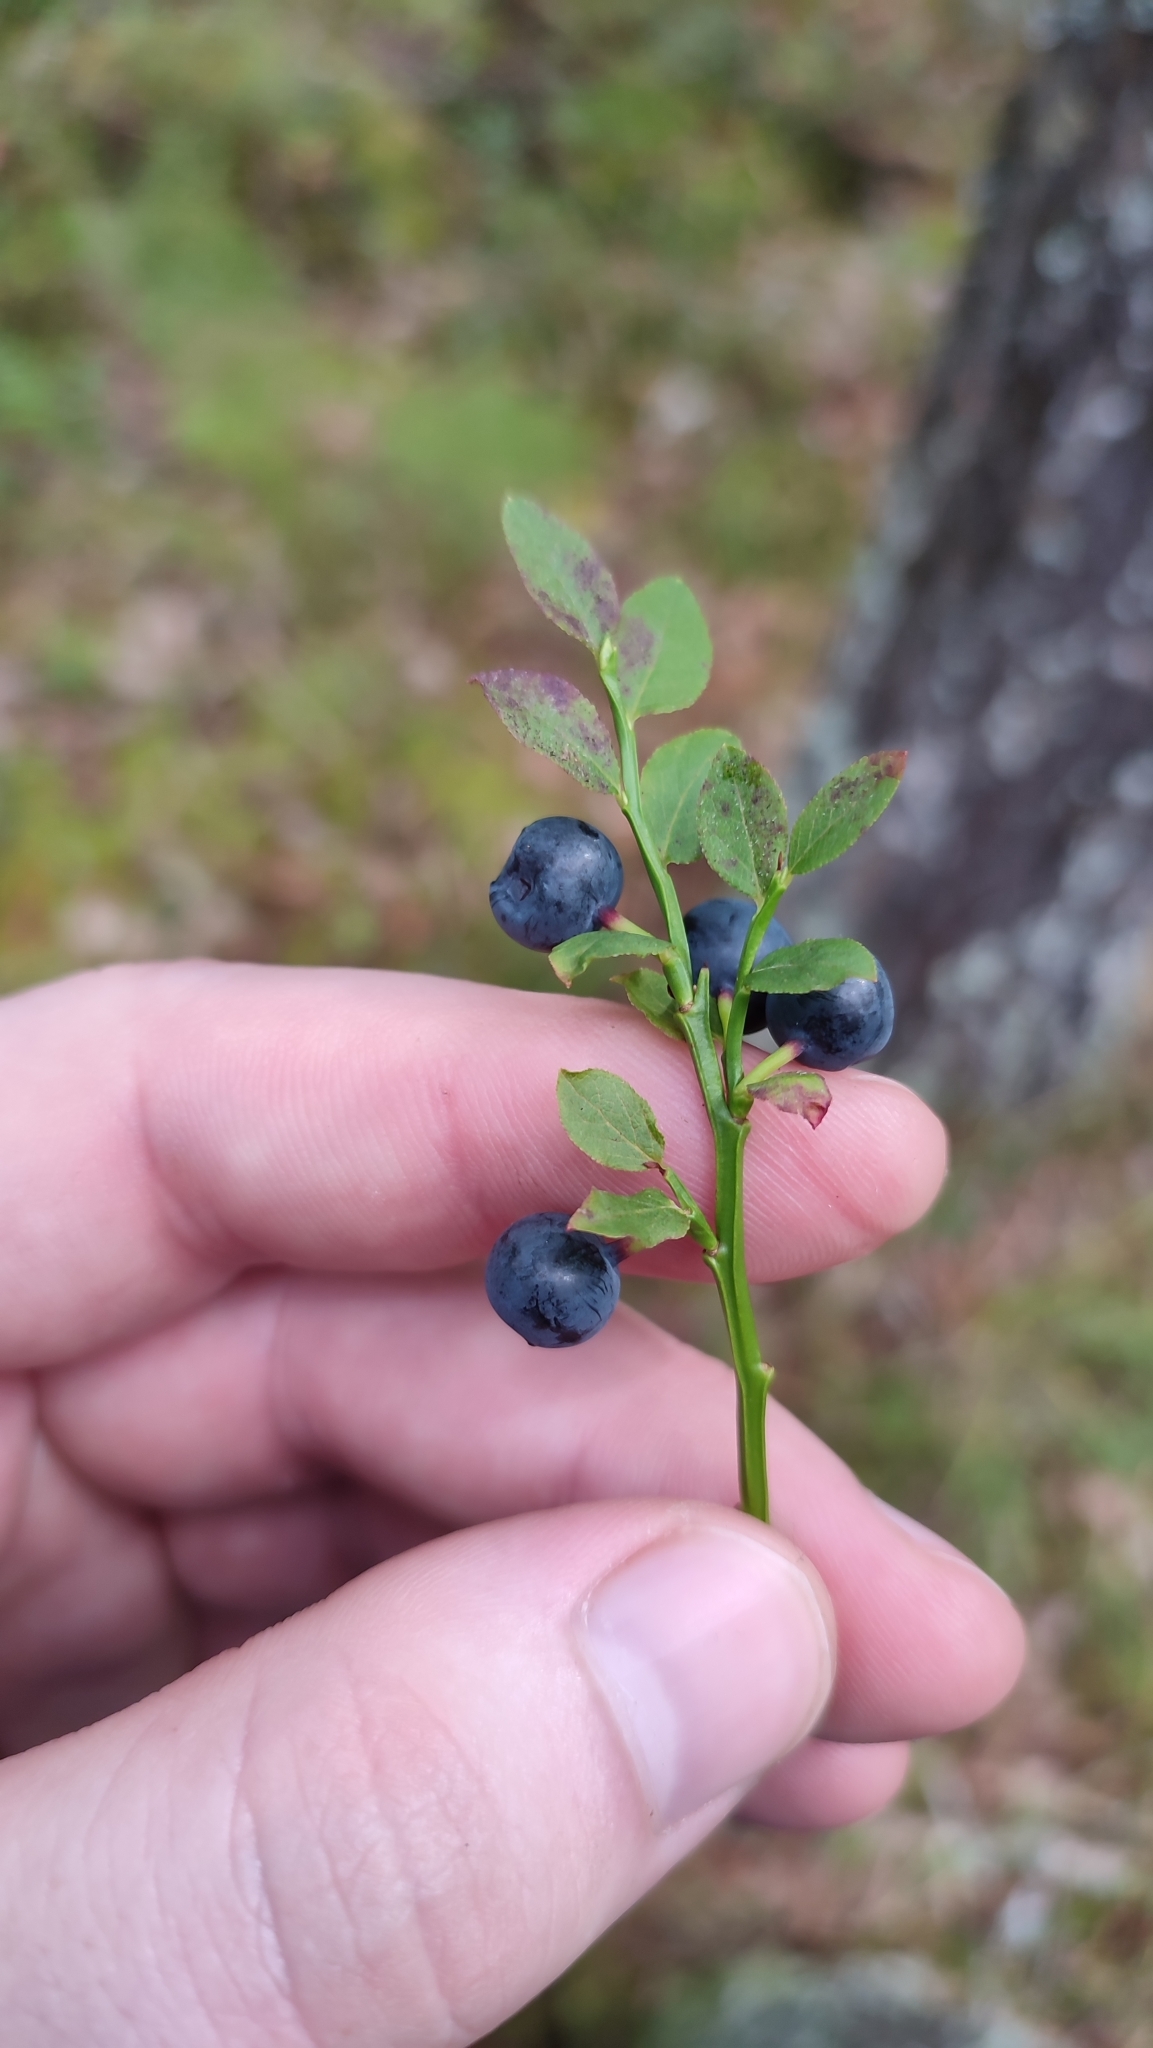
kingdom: Plantae
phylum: Tracheophyta
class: Magnoliopsida
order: Ericales
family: Ericaceae
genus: Vaccinium
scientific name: Vaccinium myrtillus
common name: Bilberry
